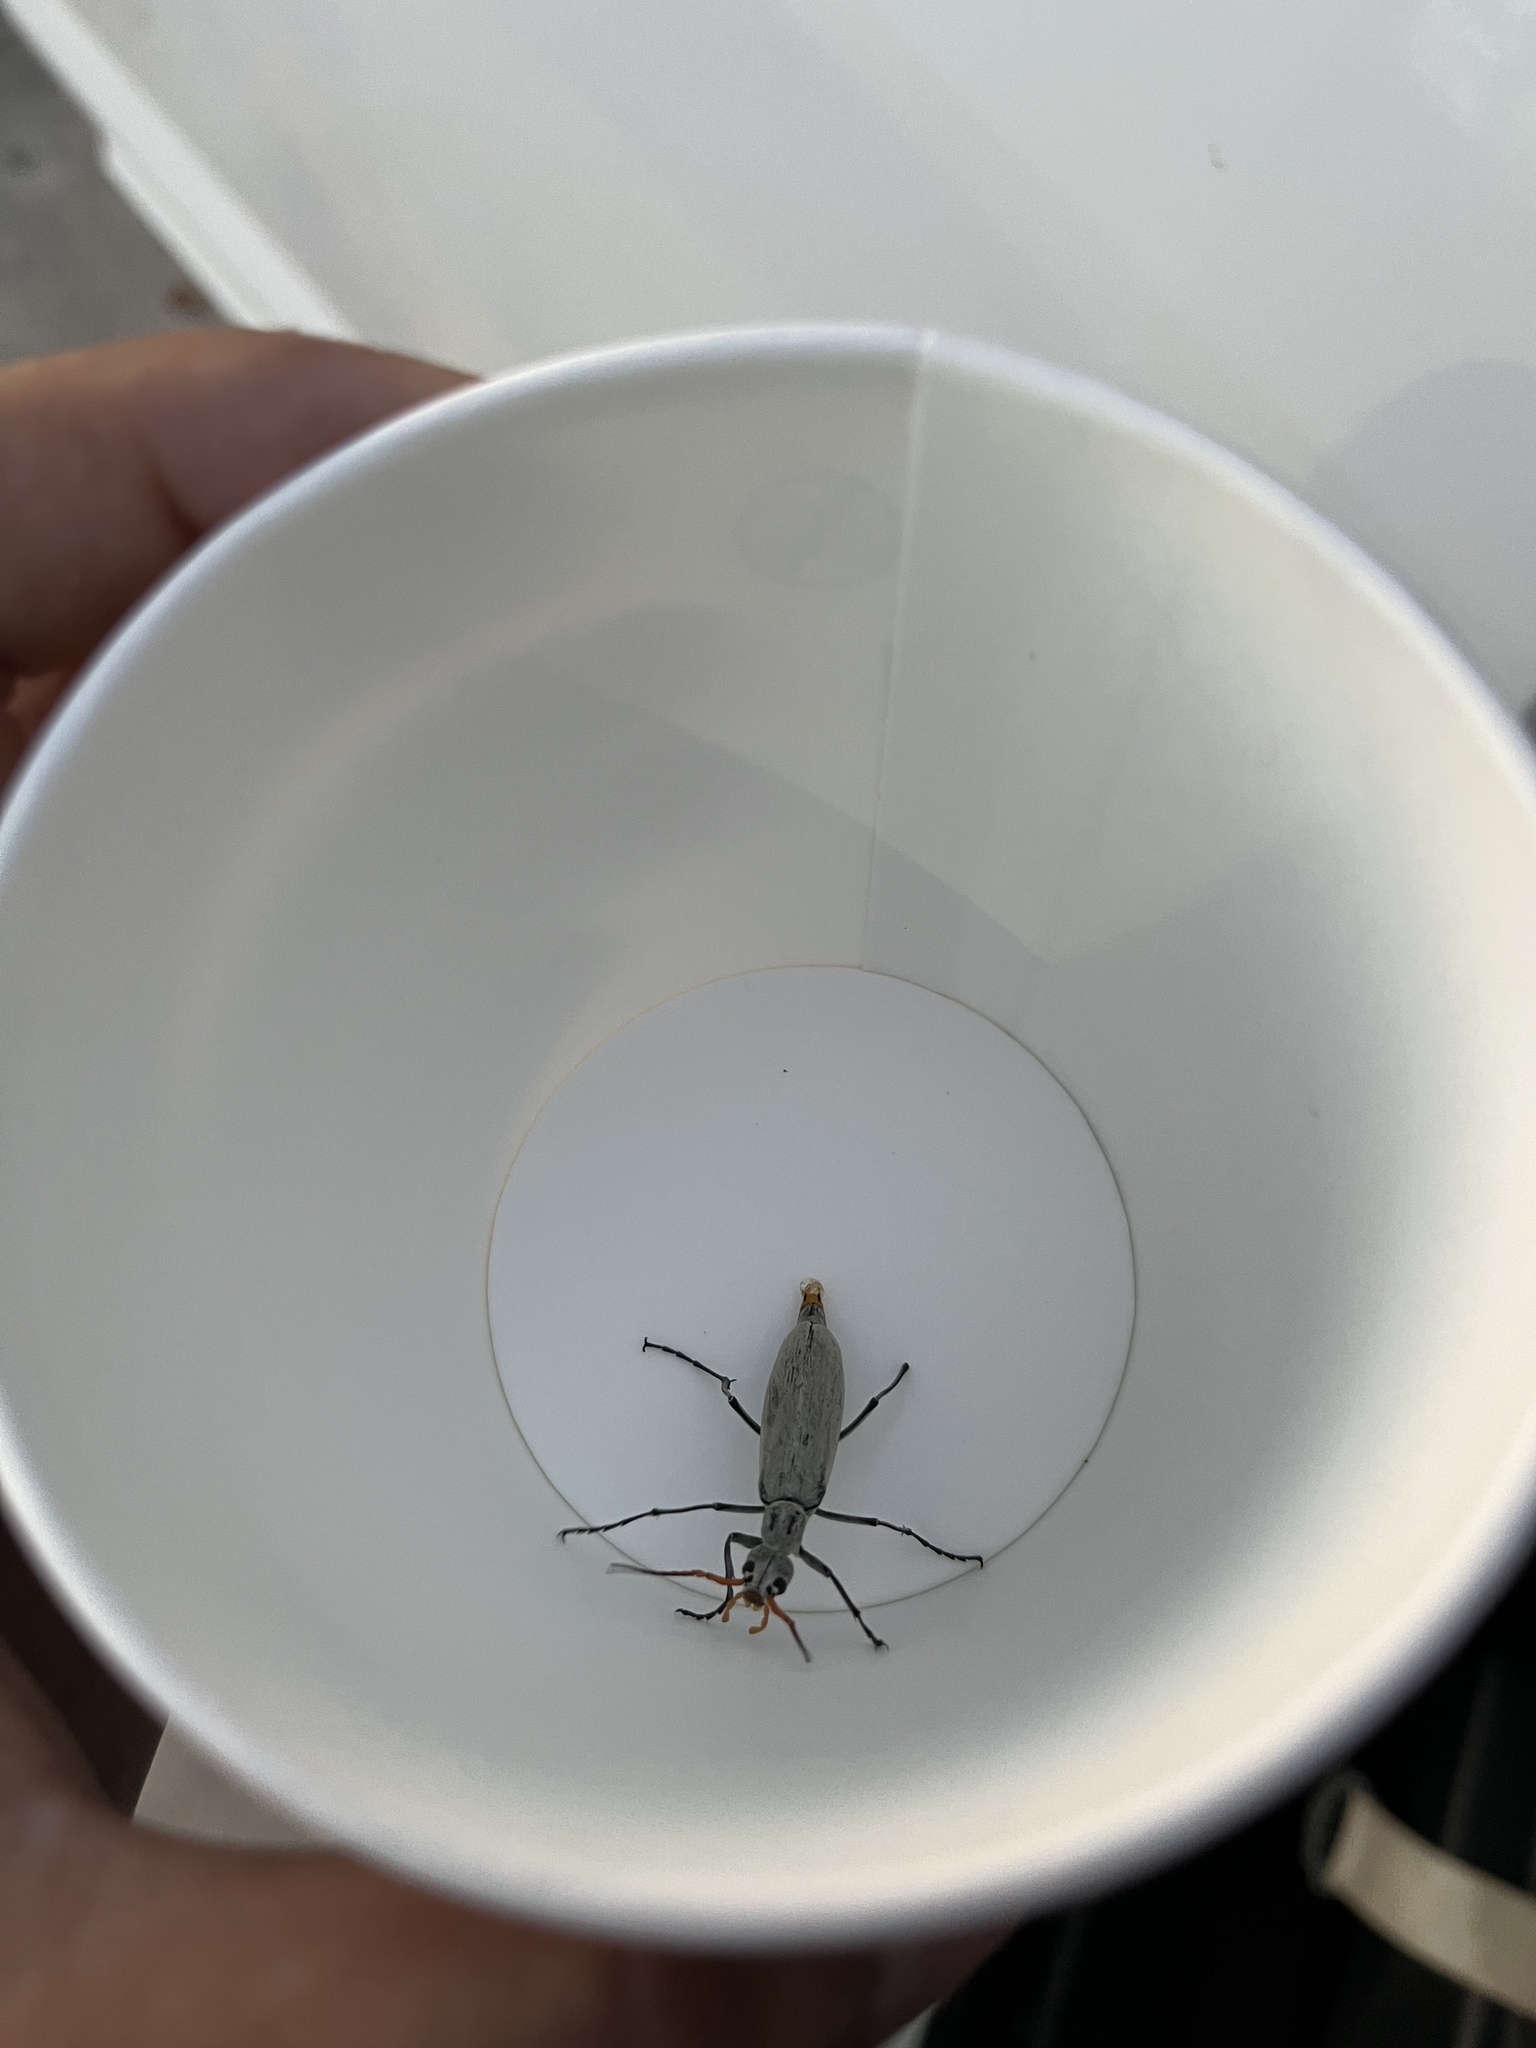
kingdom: Animalia
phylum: Arthropoda
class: Insecta
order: Coleoptera
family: Meloidae
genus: Epicauta
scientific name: Epicauta albida
